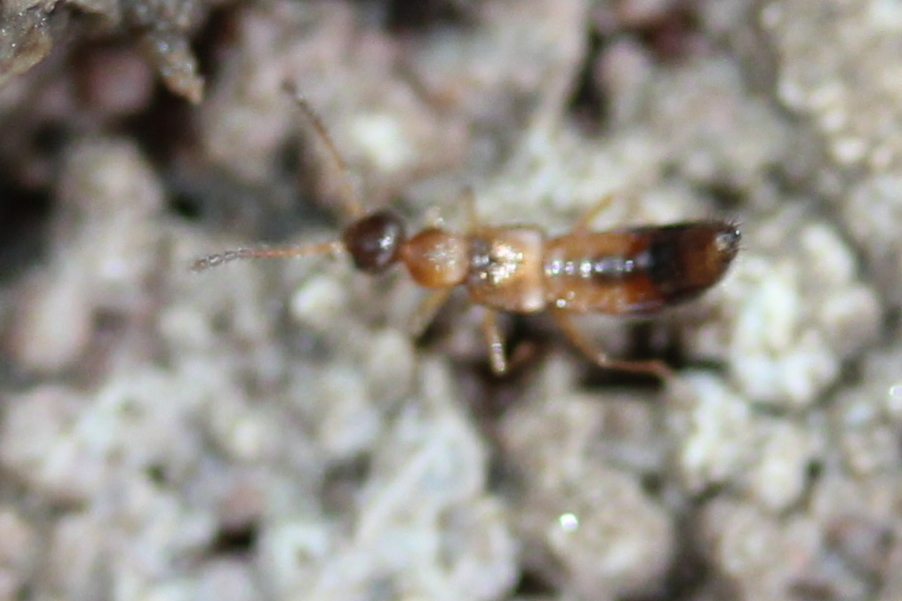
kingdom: Animalia
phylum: Arthropoda
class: Insecta
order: Coleoptera
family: Staphylinidae
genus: Meronera
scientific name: Meronera venustula
